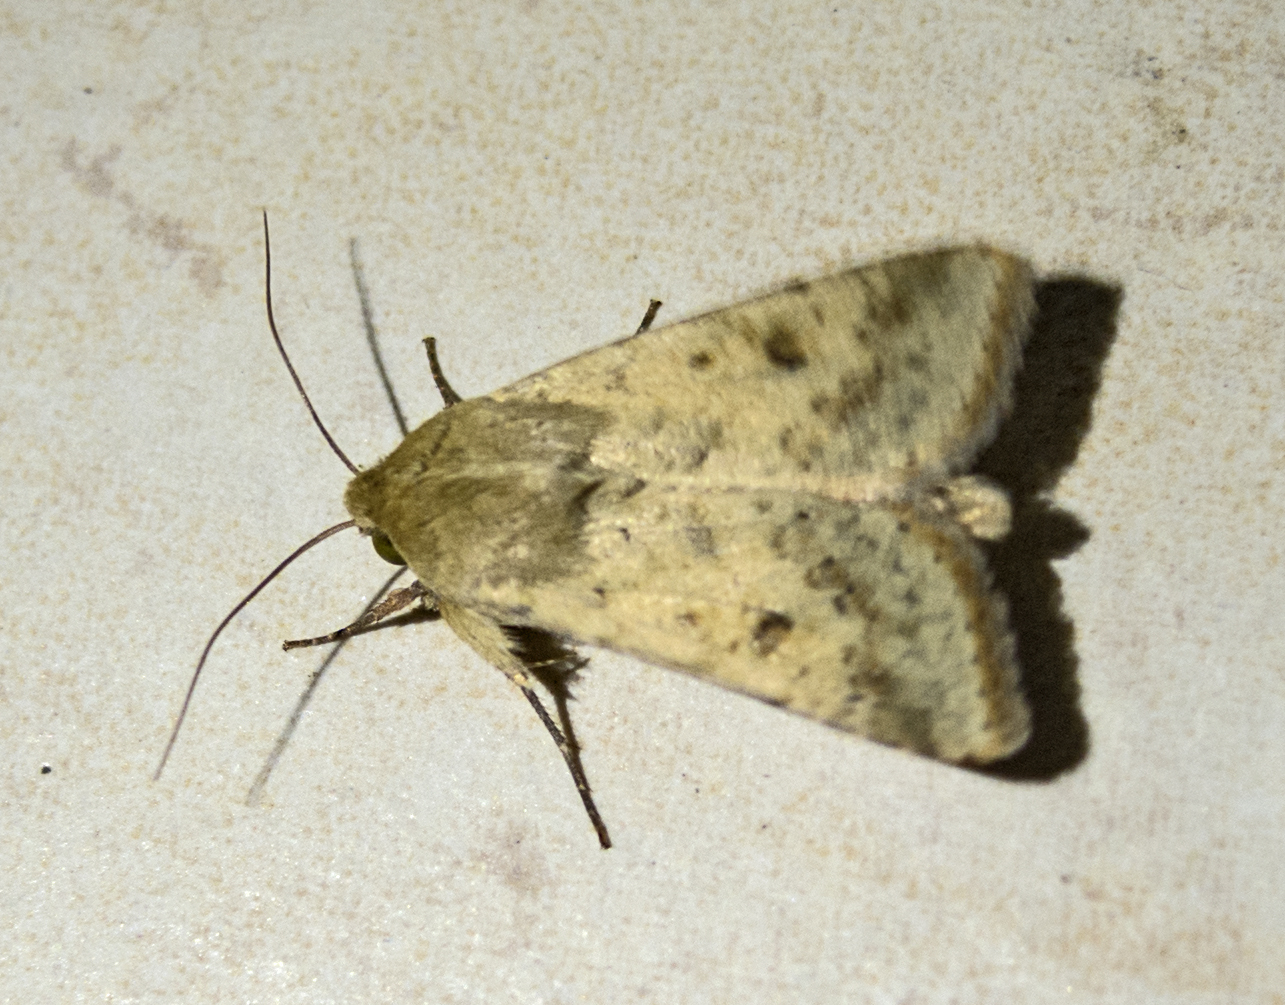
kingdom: Animalia
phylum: Arthropoda
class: Insecta
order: Lepidoptera
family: Noctuidae
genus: Helicoverpa
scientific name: Helicoverpa armigera
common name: Cotton bollworm
